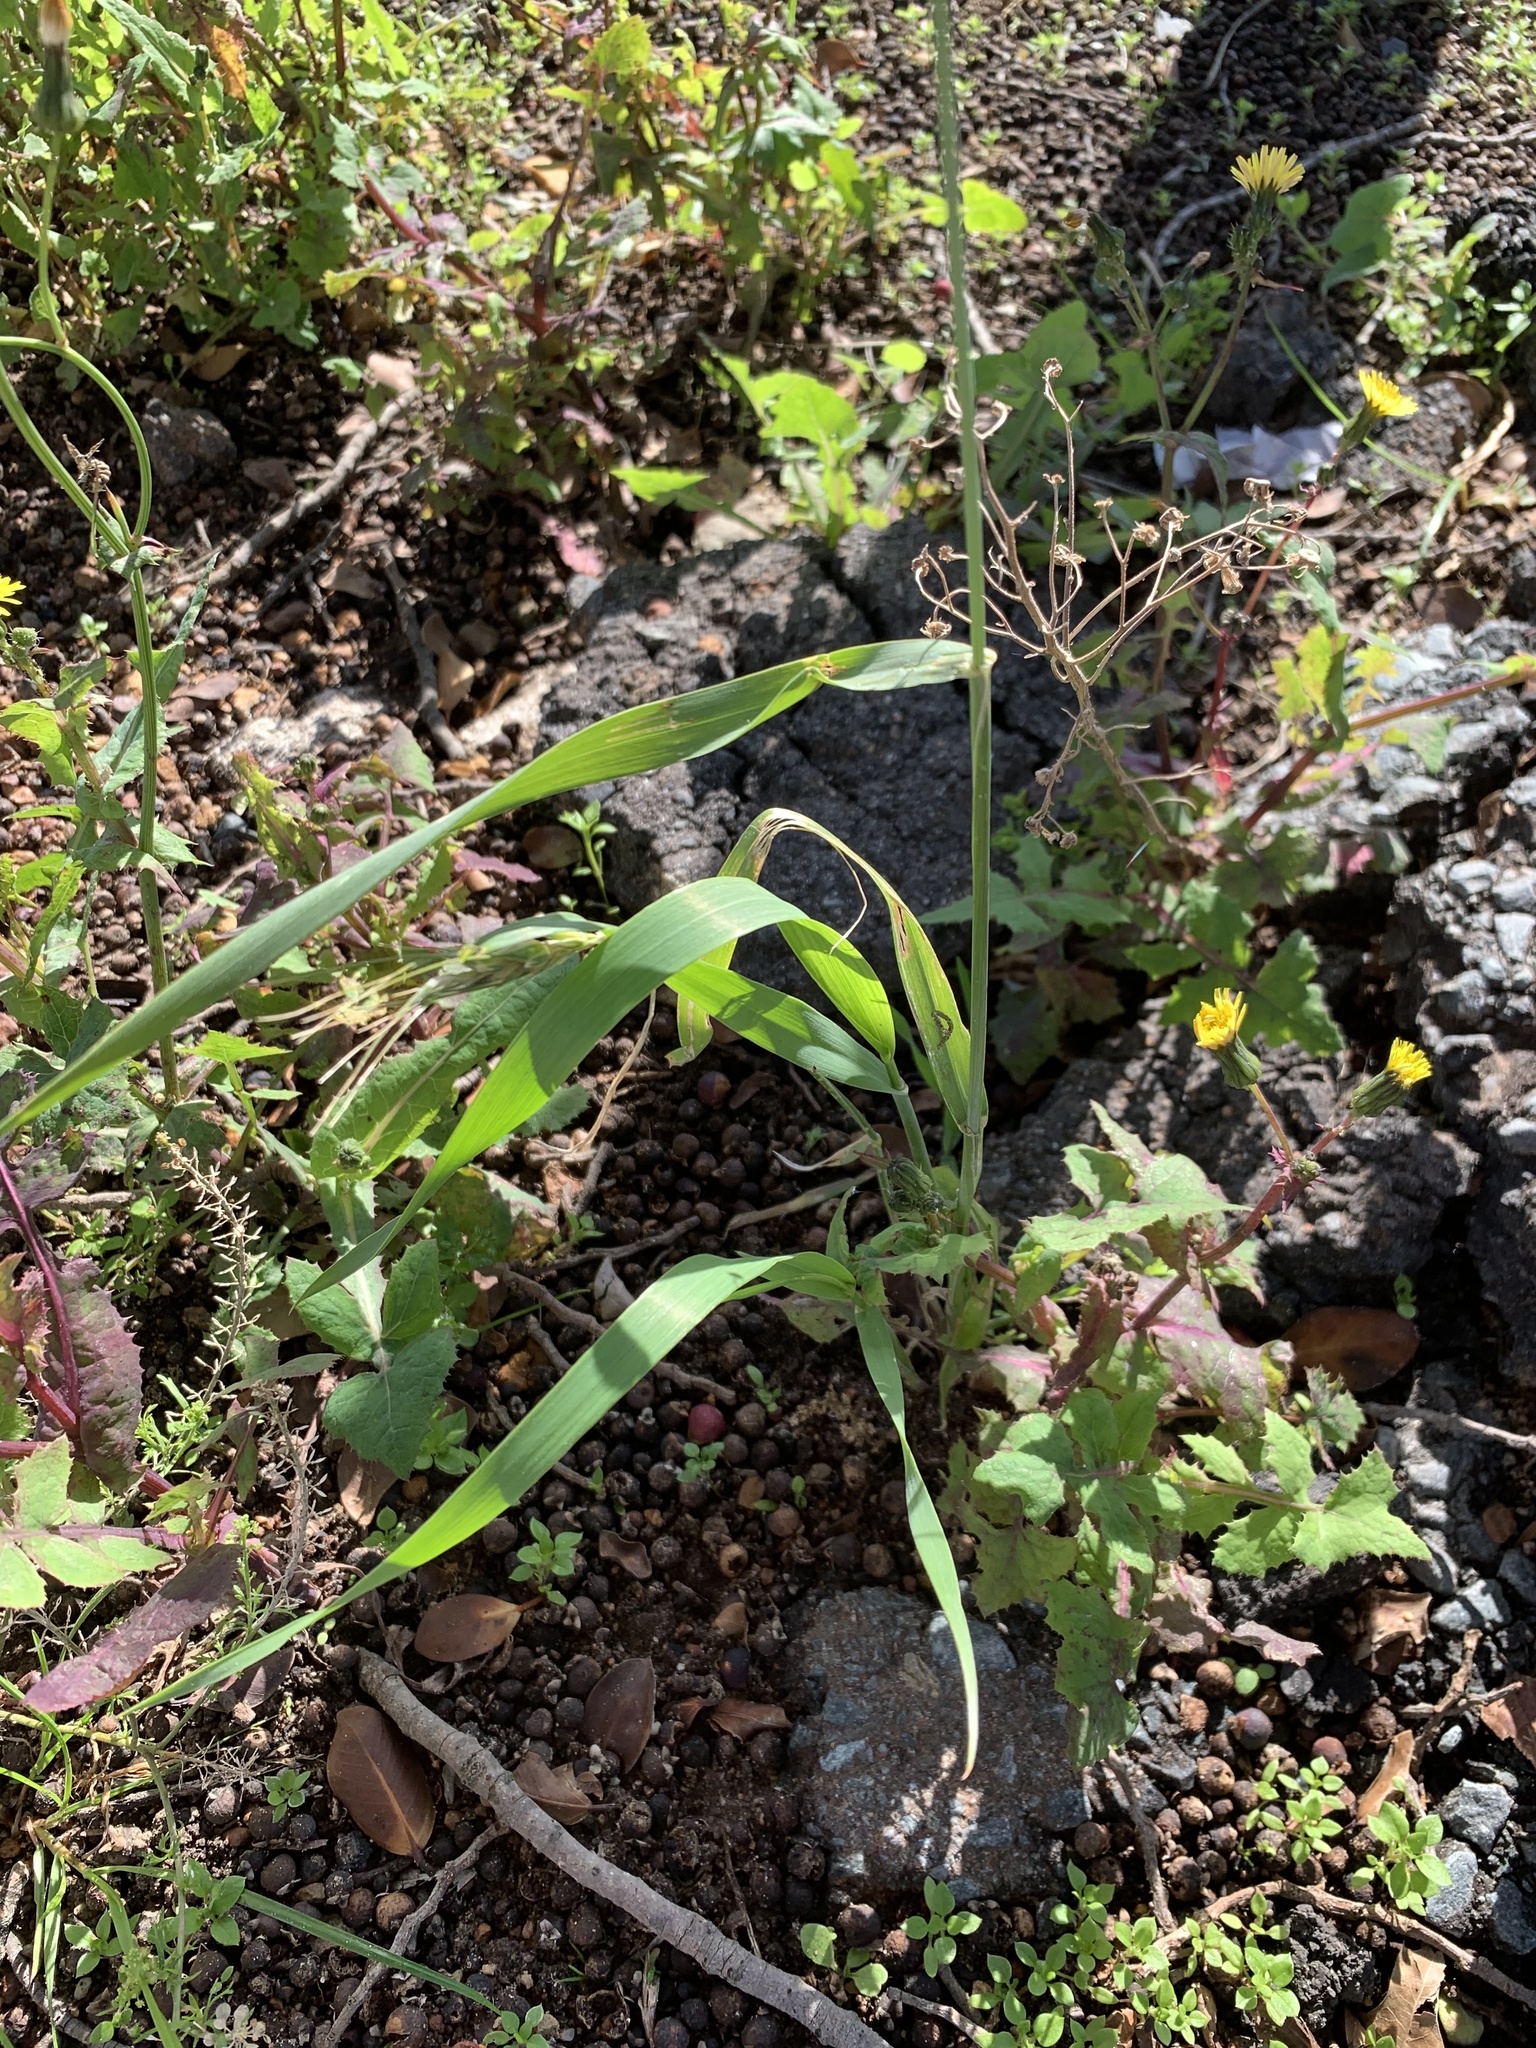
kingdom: Plantae
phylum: Tracheophyta
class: Liliopsida
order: Poales
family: Poaceae
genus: Triticum
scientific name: Triticum aestivum
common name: Common wheat
